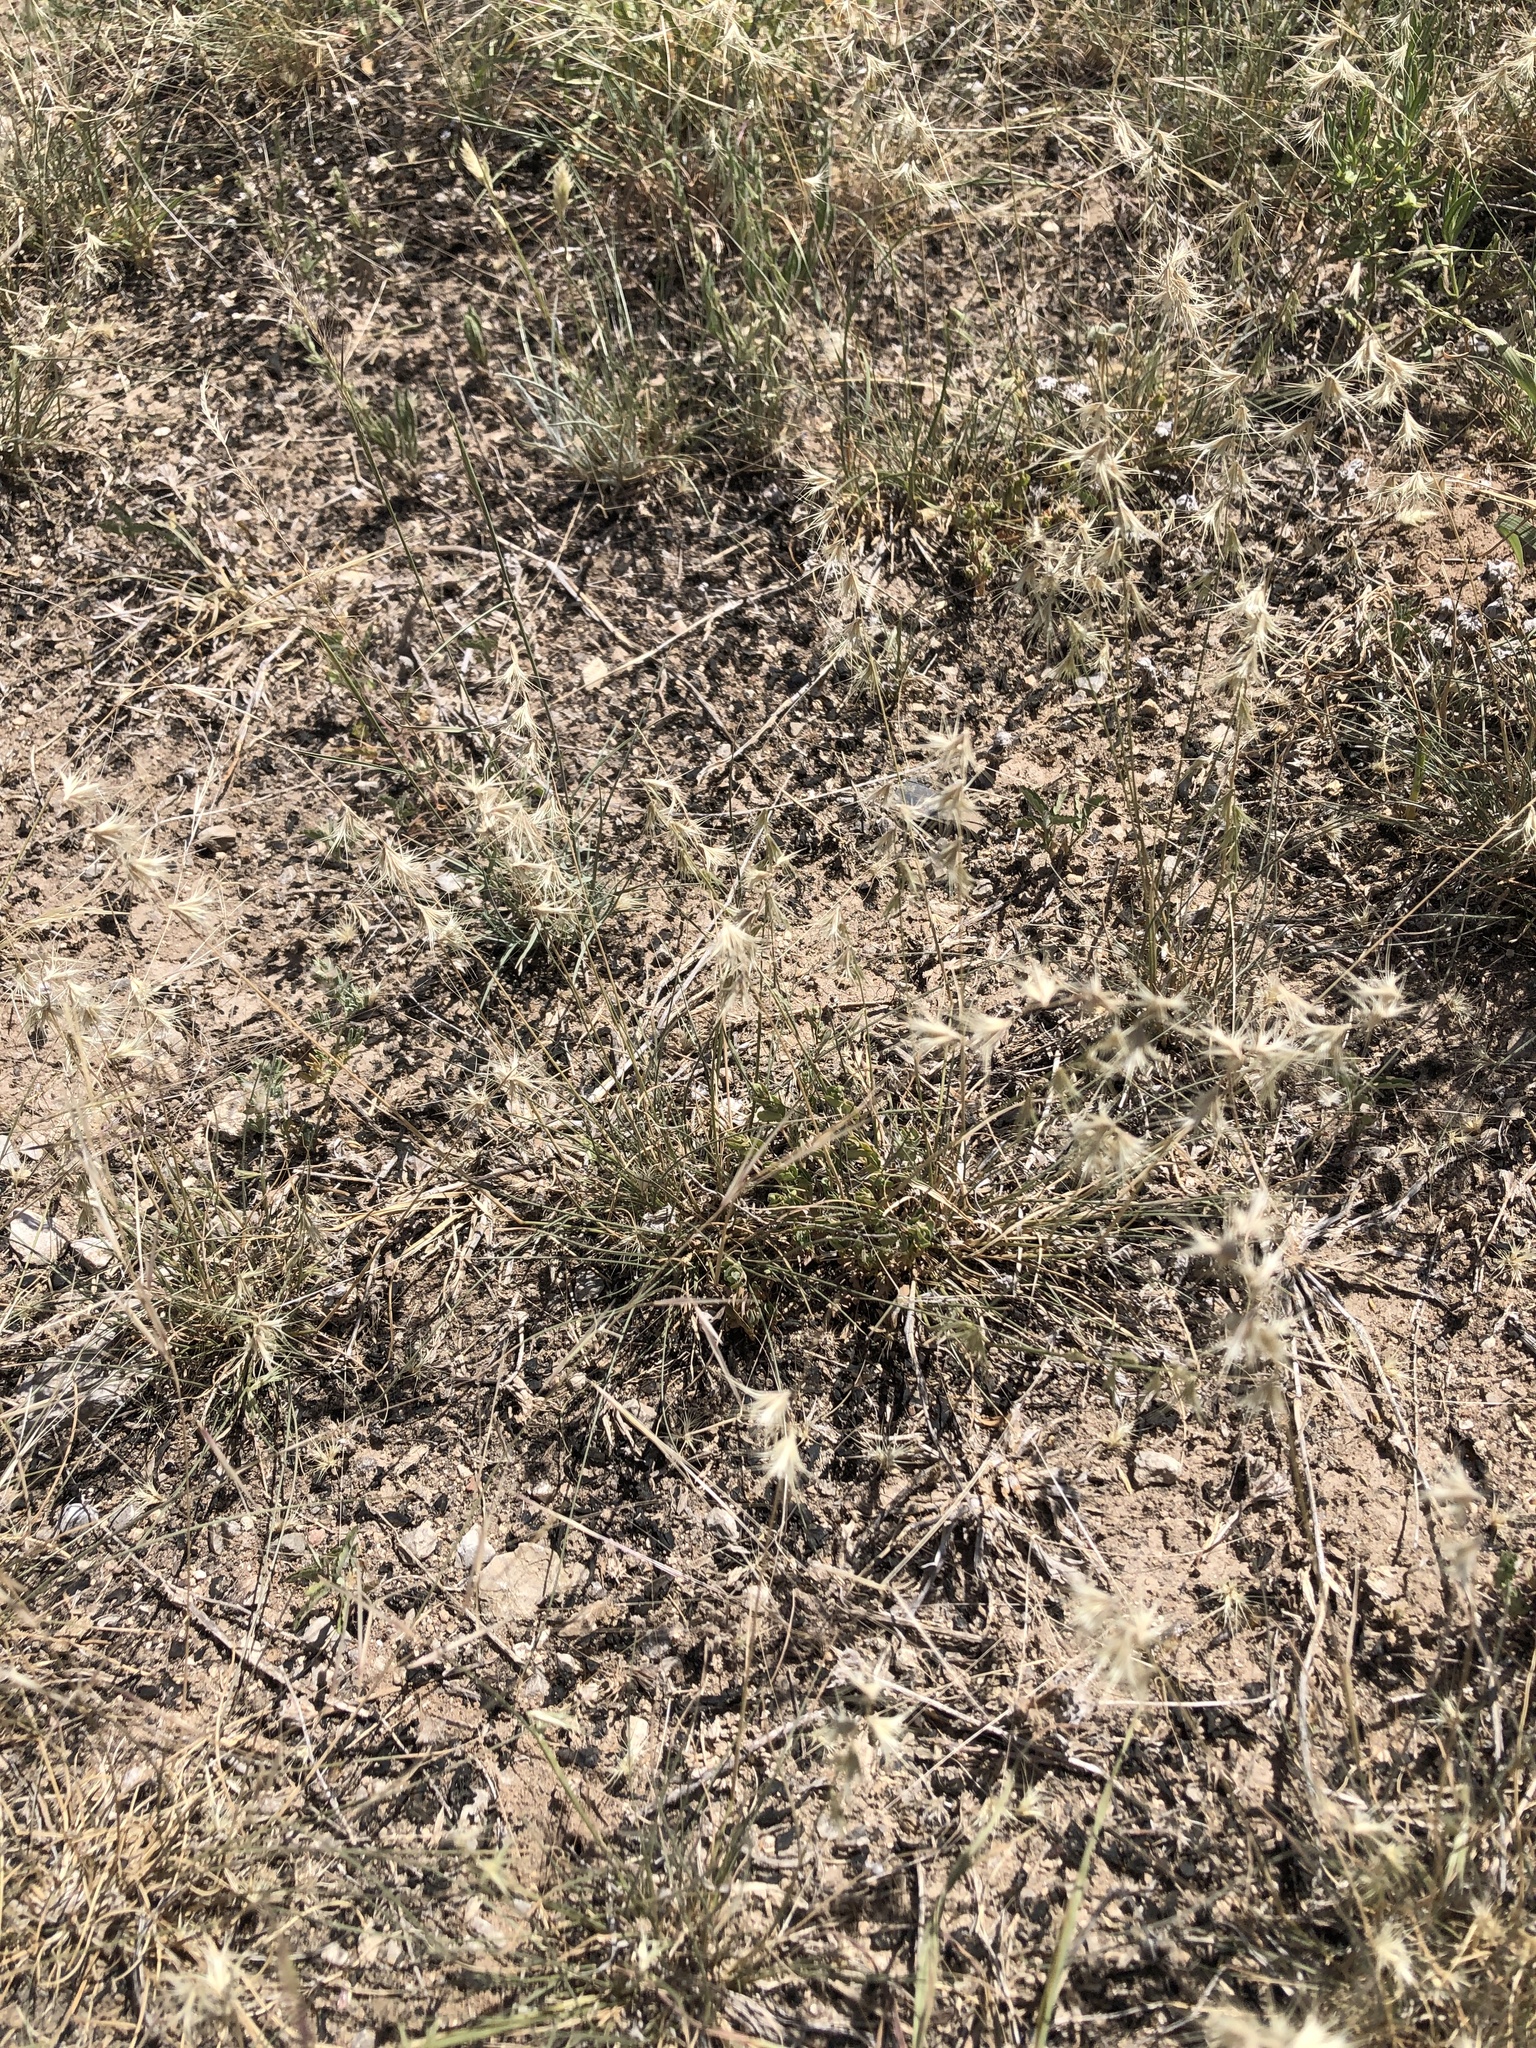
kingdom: Plantae
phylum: Tracheophyta
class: Liliopsida
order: Poales
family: Poaceae
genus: Bouteloua
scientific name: Bouteloua rigidiseta
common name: Texas grama
